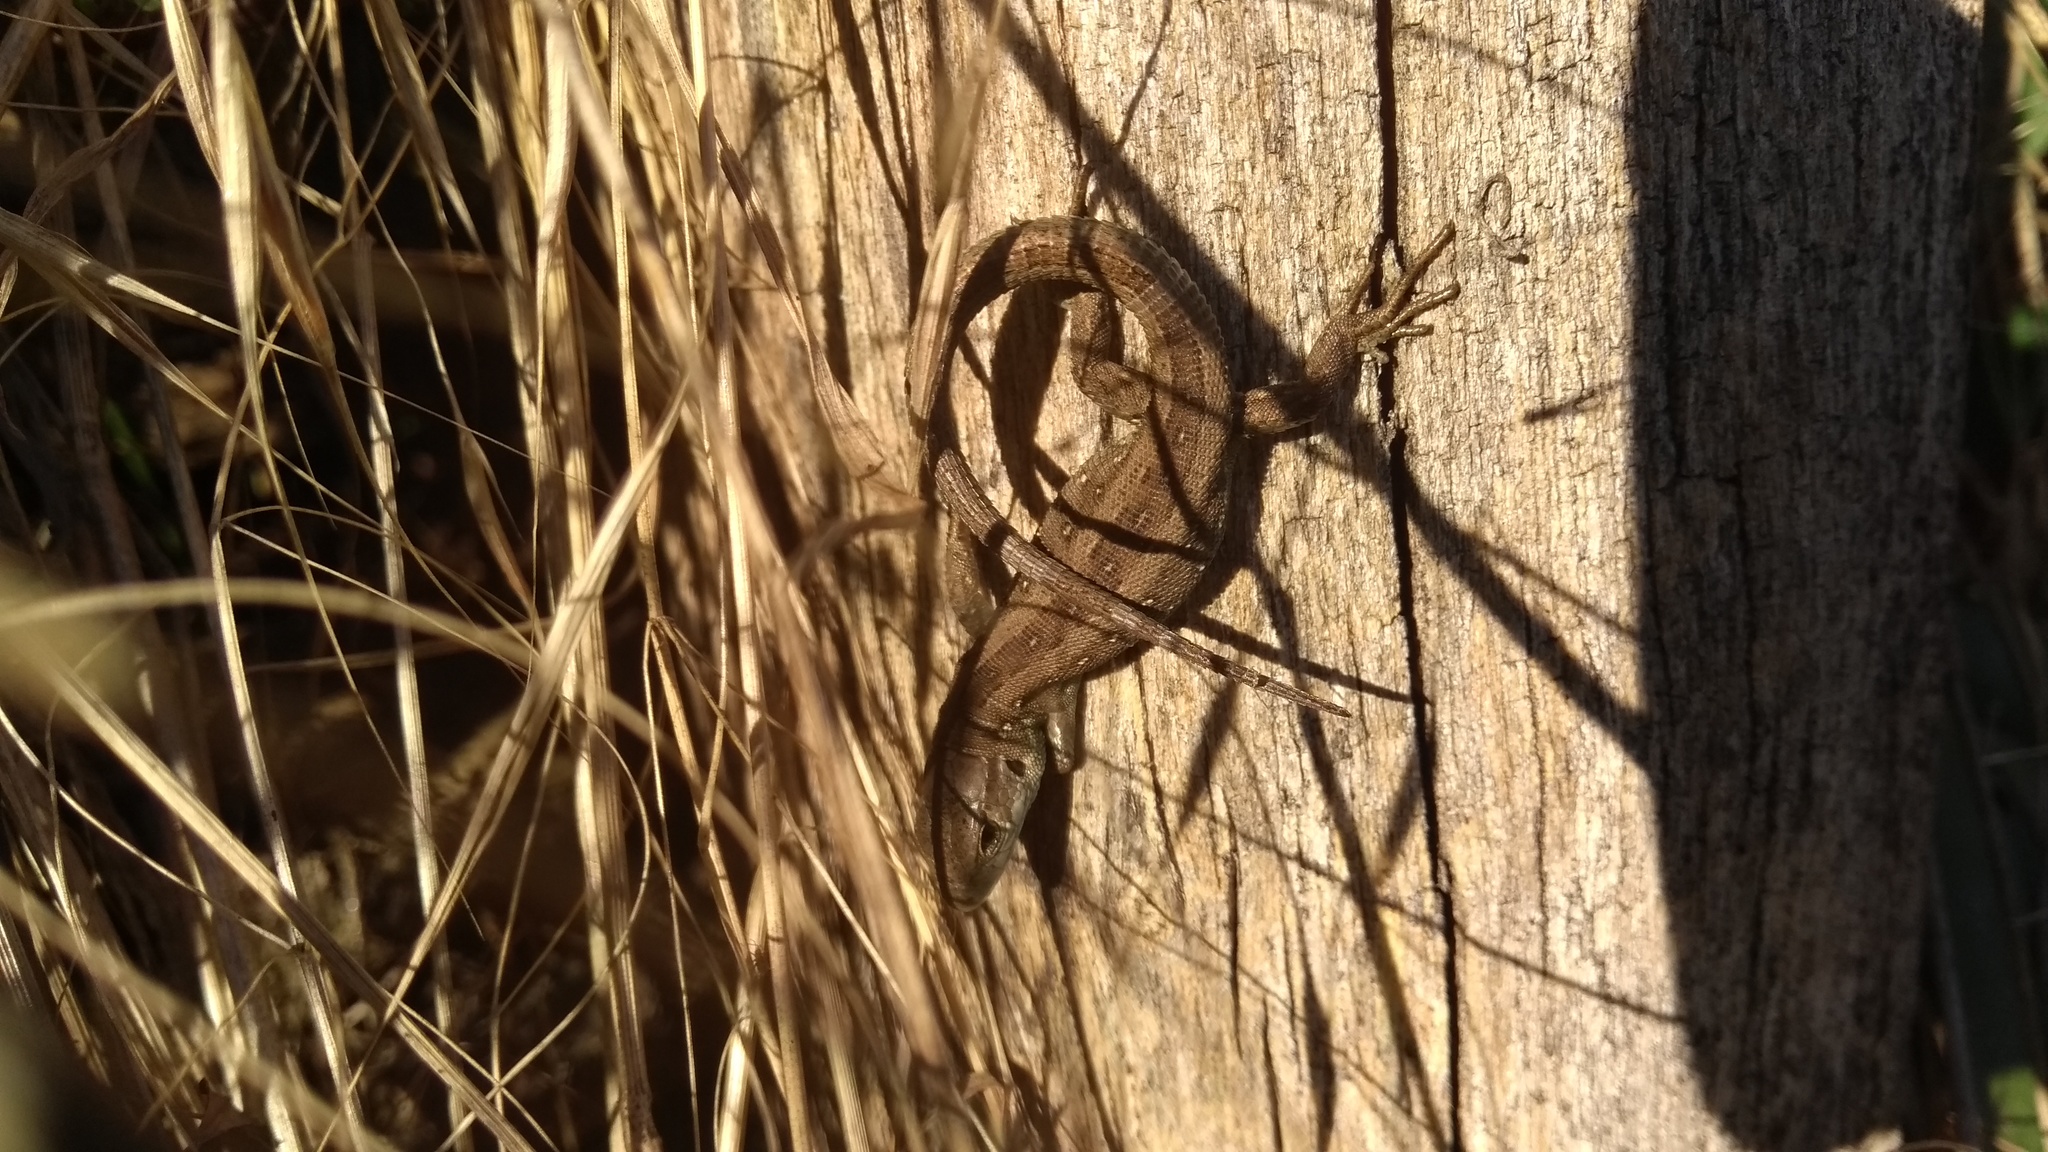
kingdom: Animalia
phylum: Chordata
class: Squamata
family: Lacertidae
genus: Lacerta
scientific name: Lacerta agilis
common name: Sand lizard
